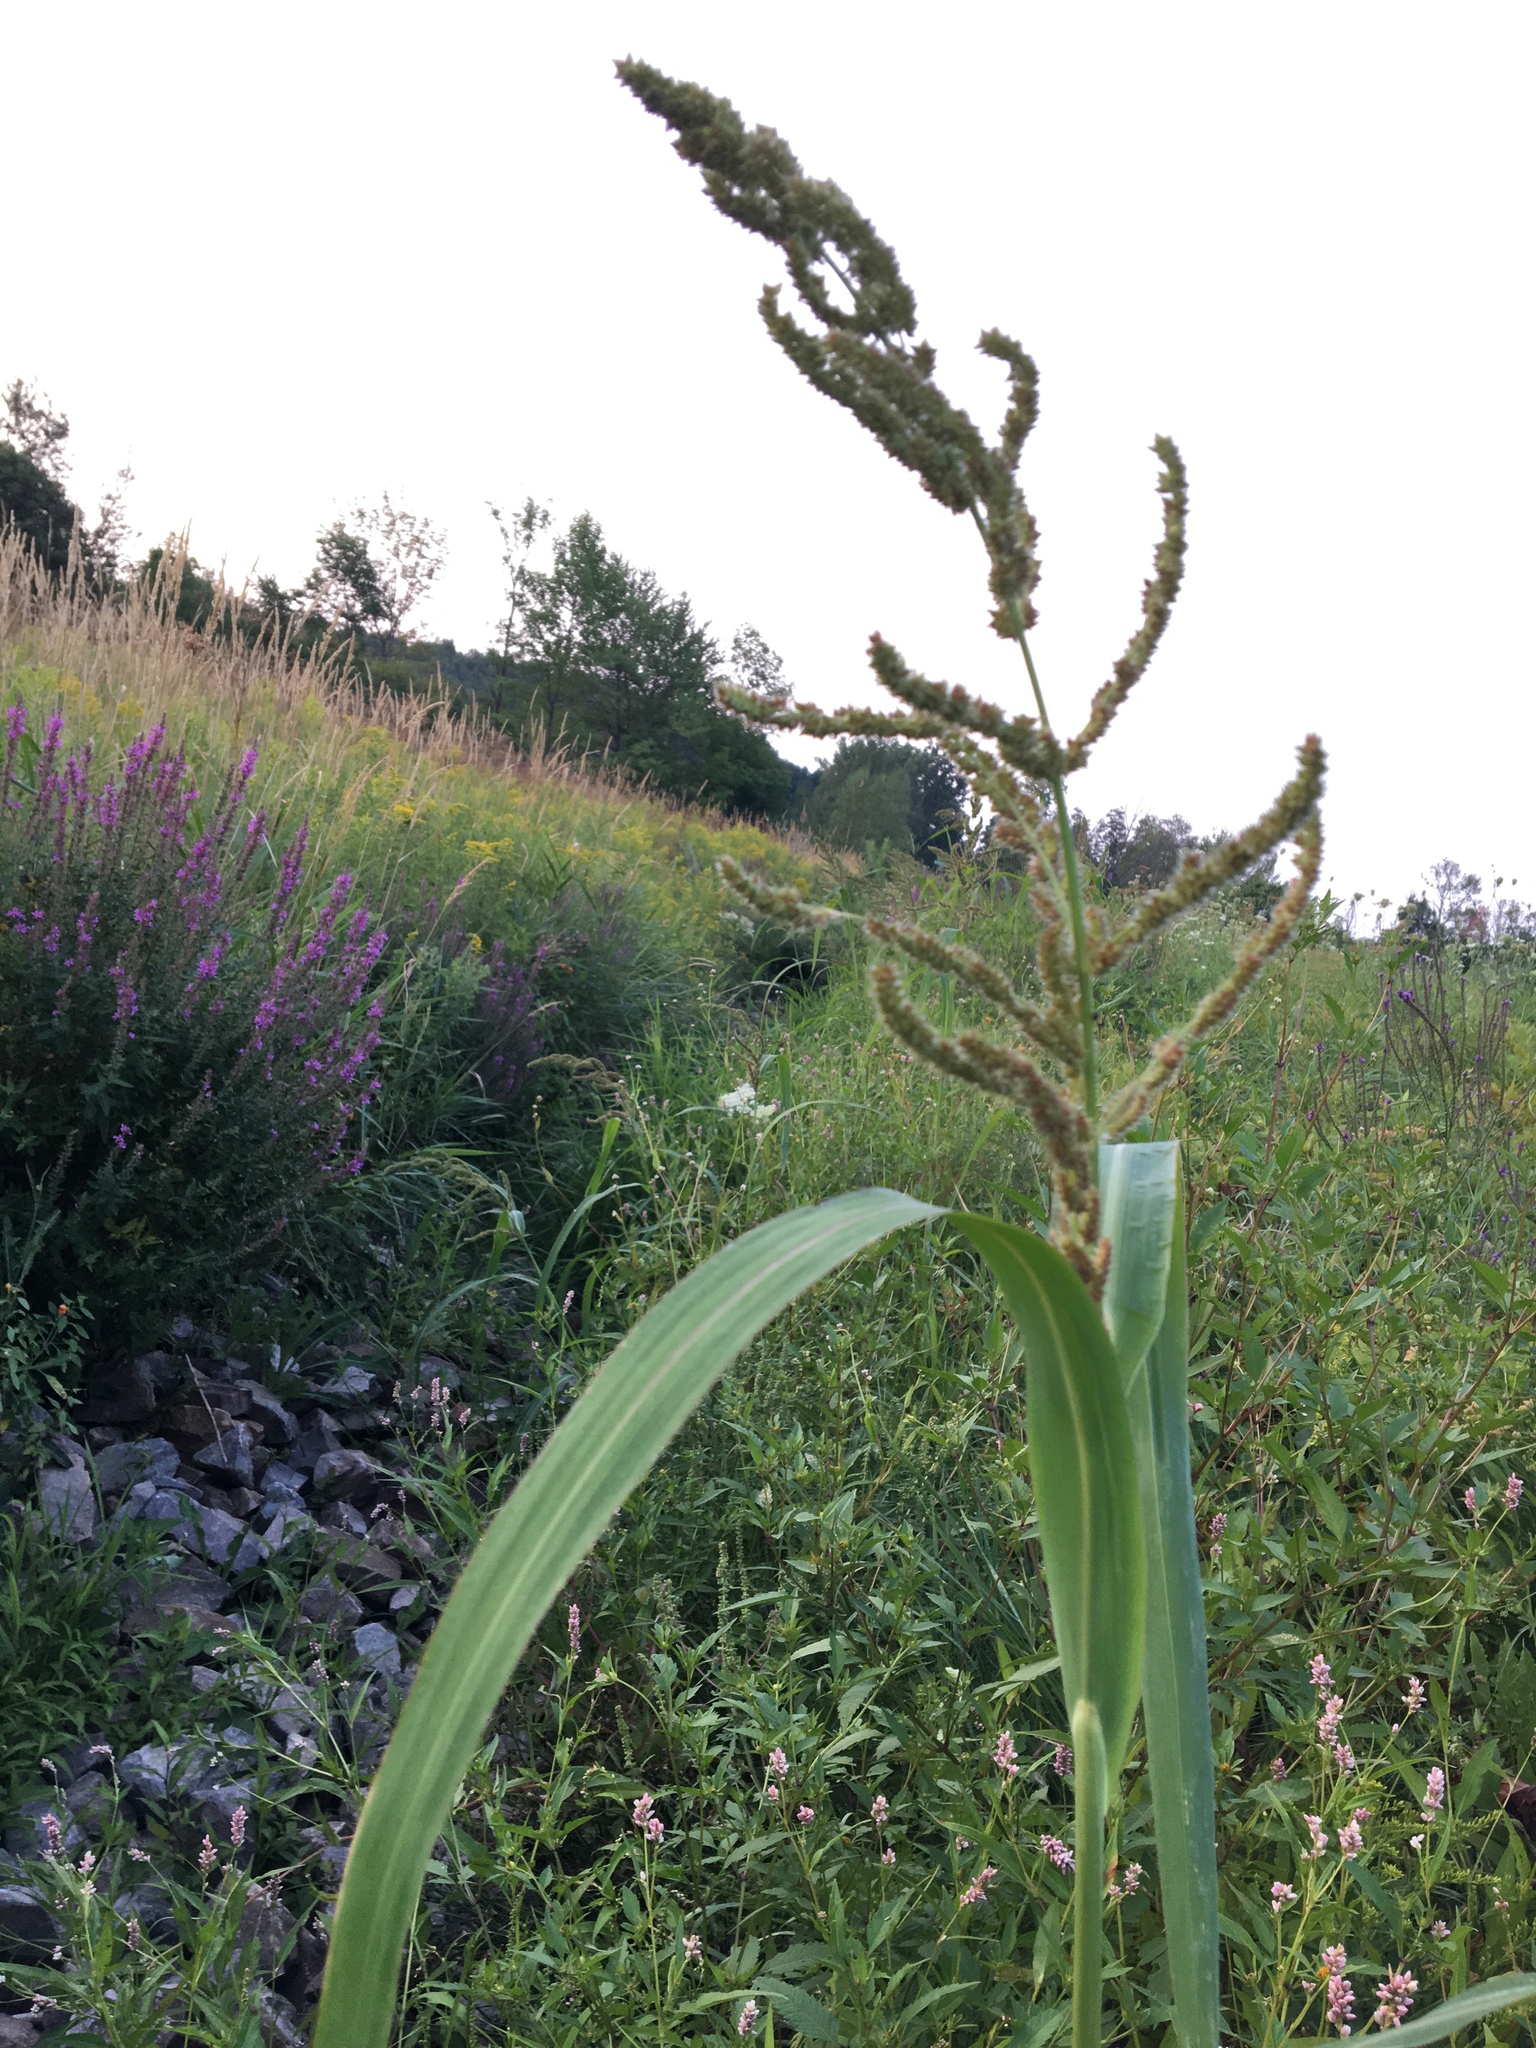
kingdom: Plantae
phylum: Tracheophyta
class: Liliopsida
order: Poales
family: Poaceae
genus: Echinochloa
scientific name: Echinochloa crus-galli
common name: Cockspur
